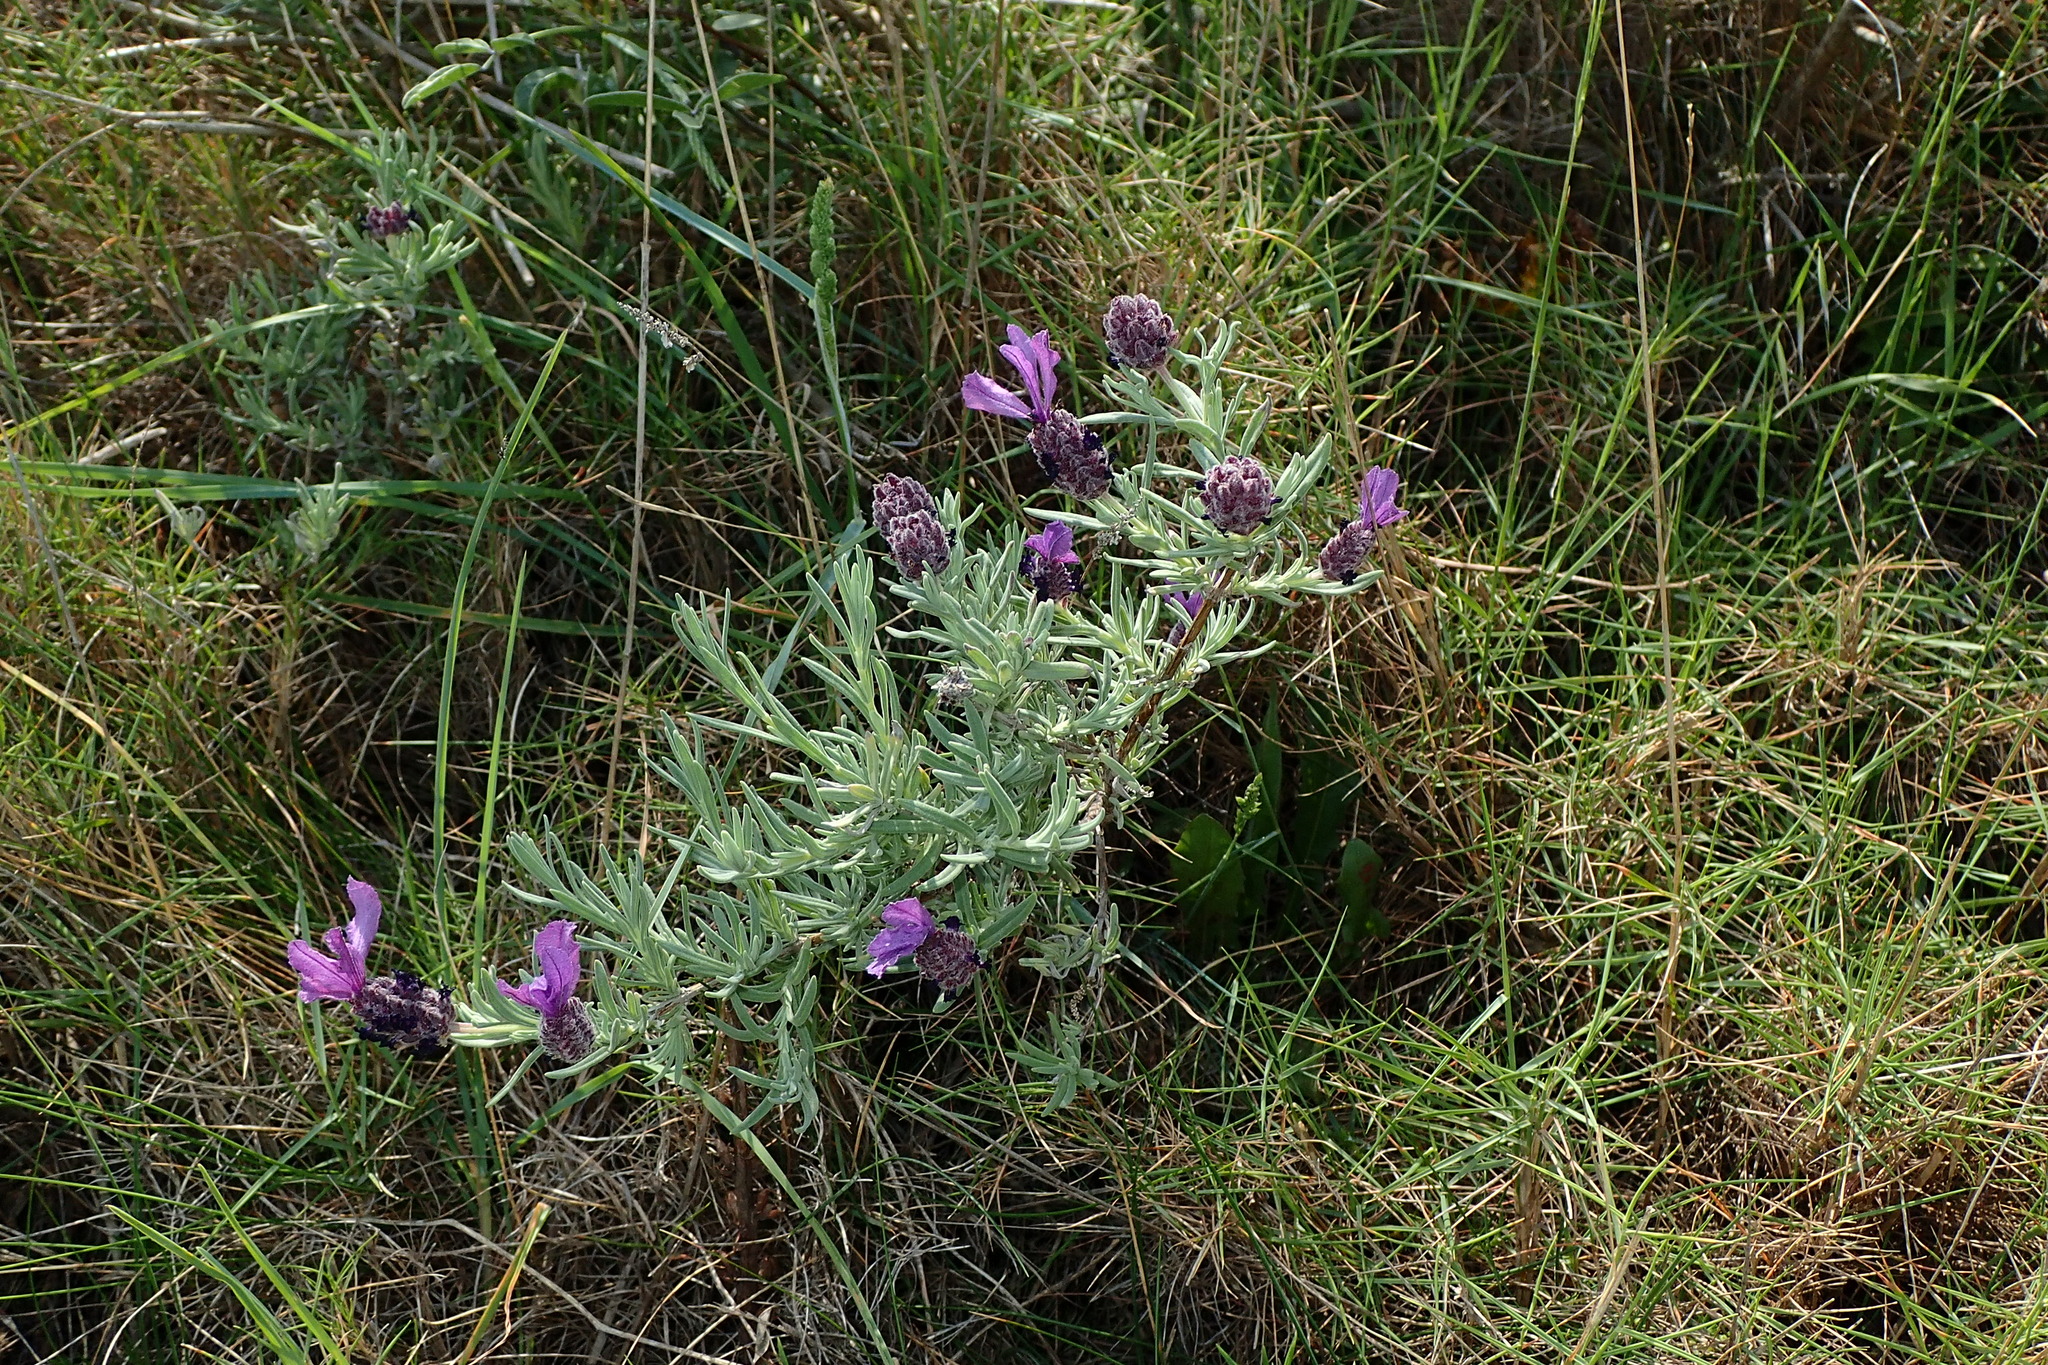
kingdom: Plantae
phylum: Tracheophyta
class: Magnoliopsida
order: Lamiales
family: Lamiaceae
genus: Lavandula
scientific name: Lavandula stoechas
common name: French lavender
